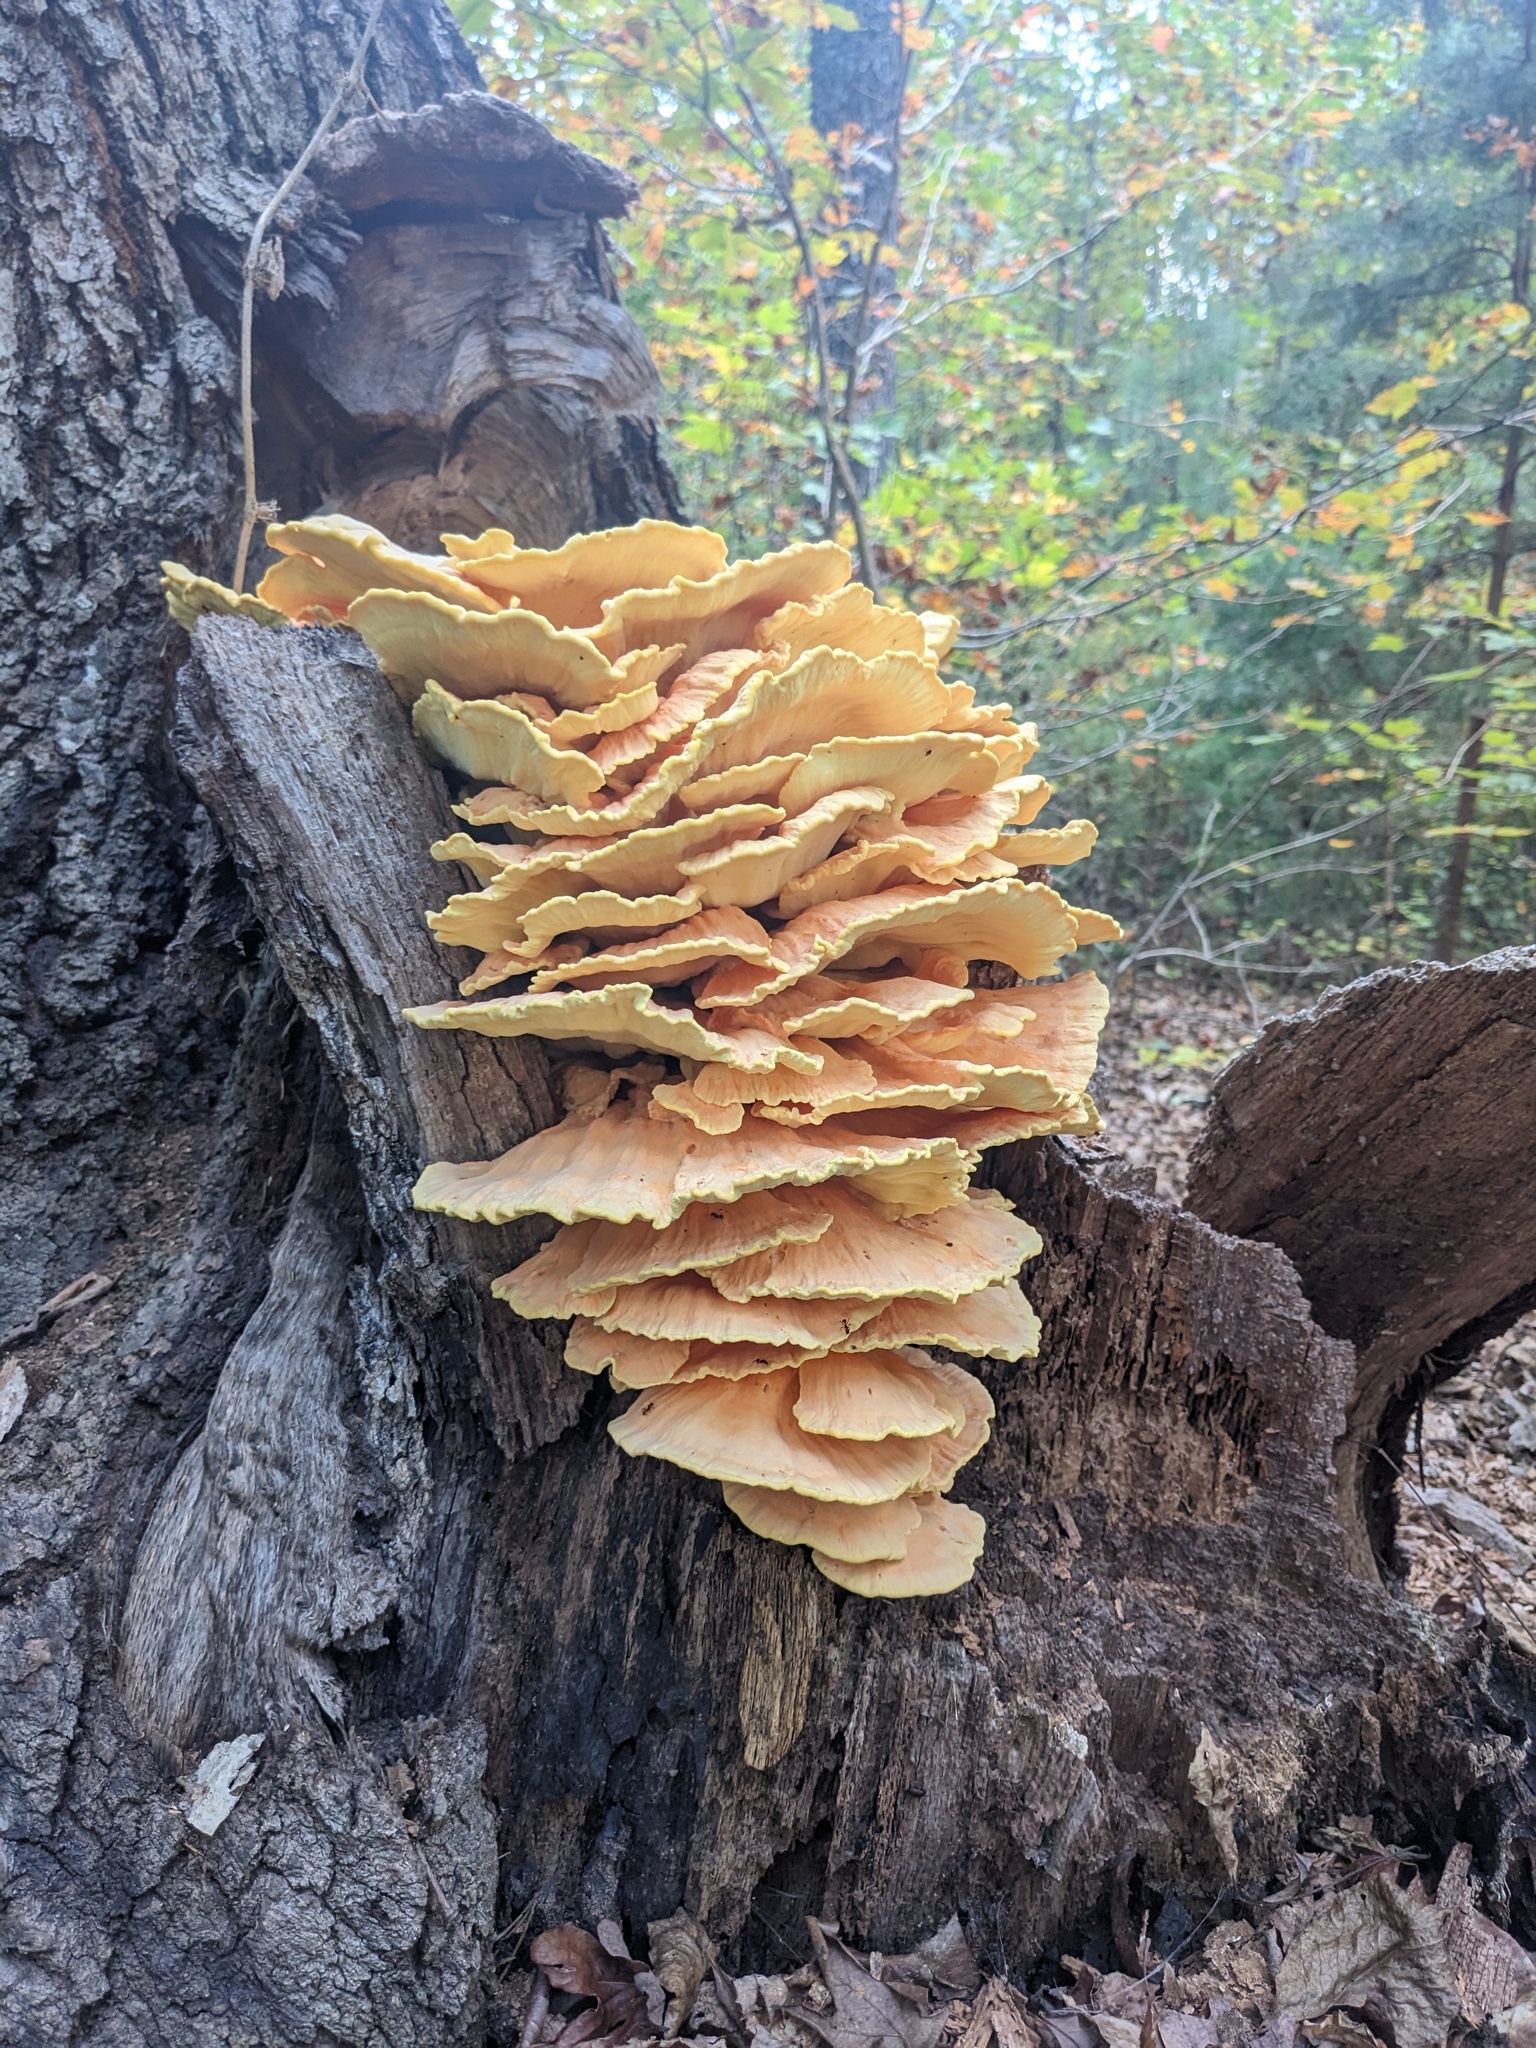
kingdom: Fungi
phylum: Basidiomycota
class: Agaricomycetes
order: Polyporales
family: Laetiporaceae
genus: Laetiporus
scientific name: Laetiporus sulphureus
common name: Chicken of the woods
